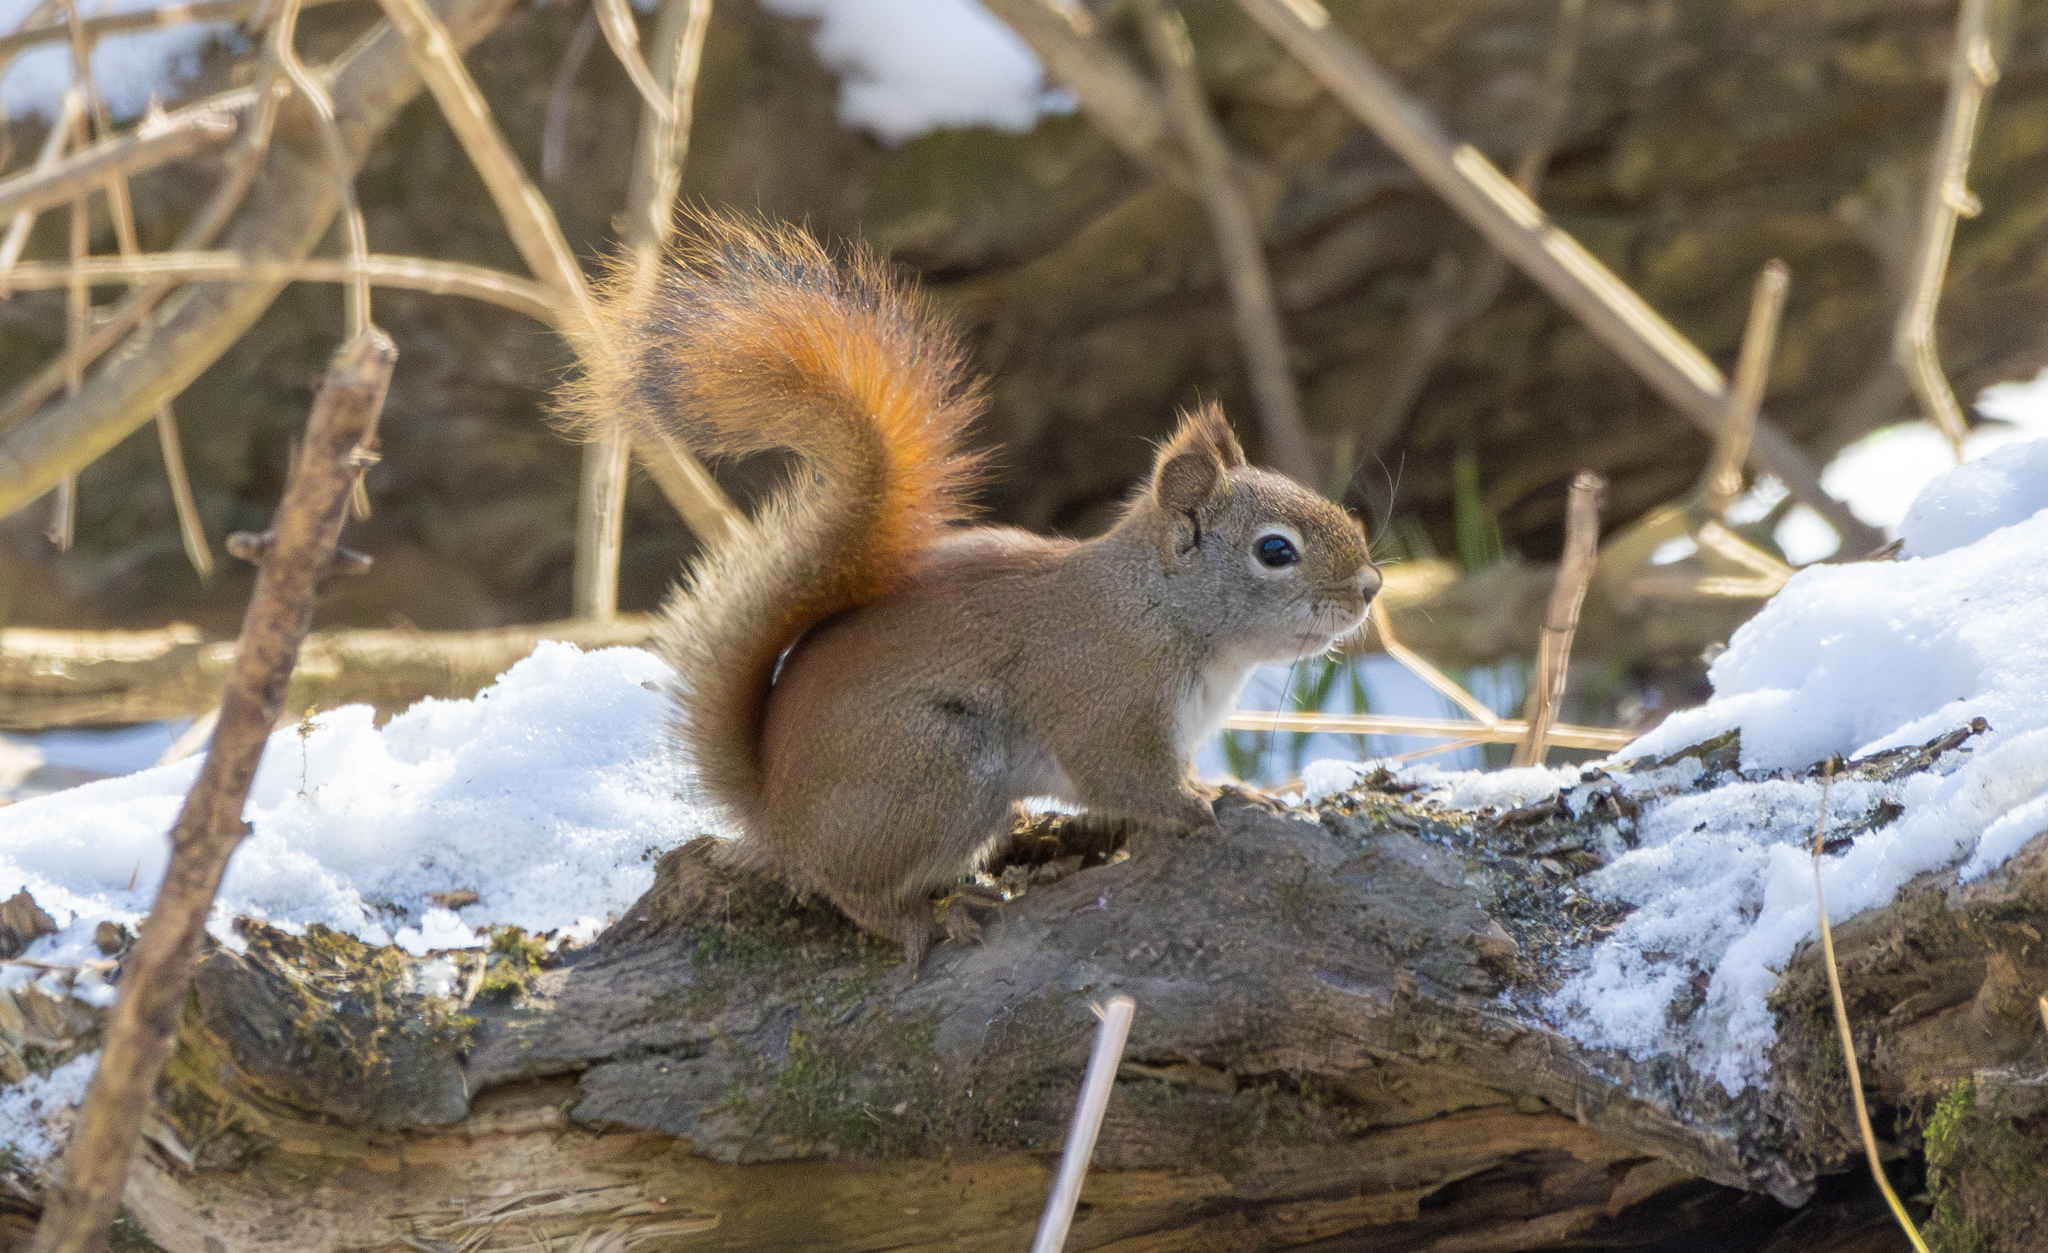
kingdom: Animalia
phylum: Chordata
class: Mammalia
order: Rodentia
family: Sciuridae
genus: Tamiasciurus
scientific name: Tamiasciurus hudsonicus
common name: Red squirrel
